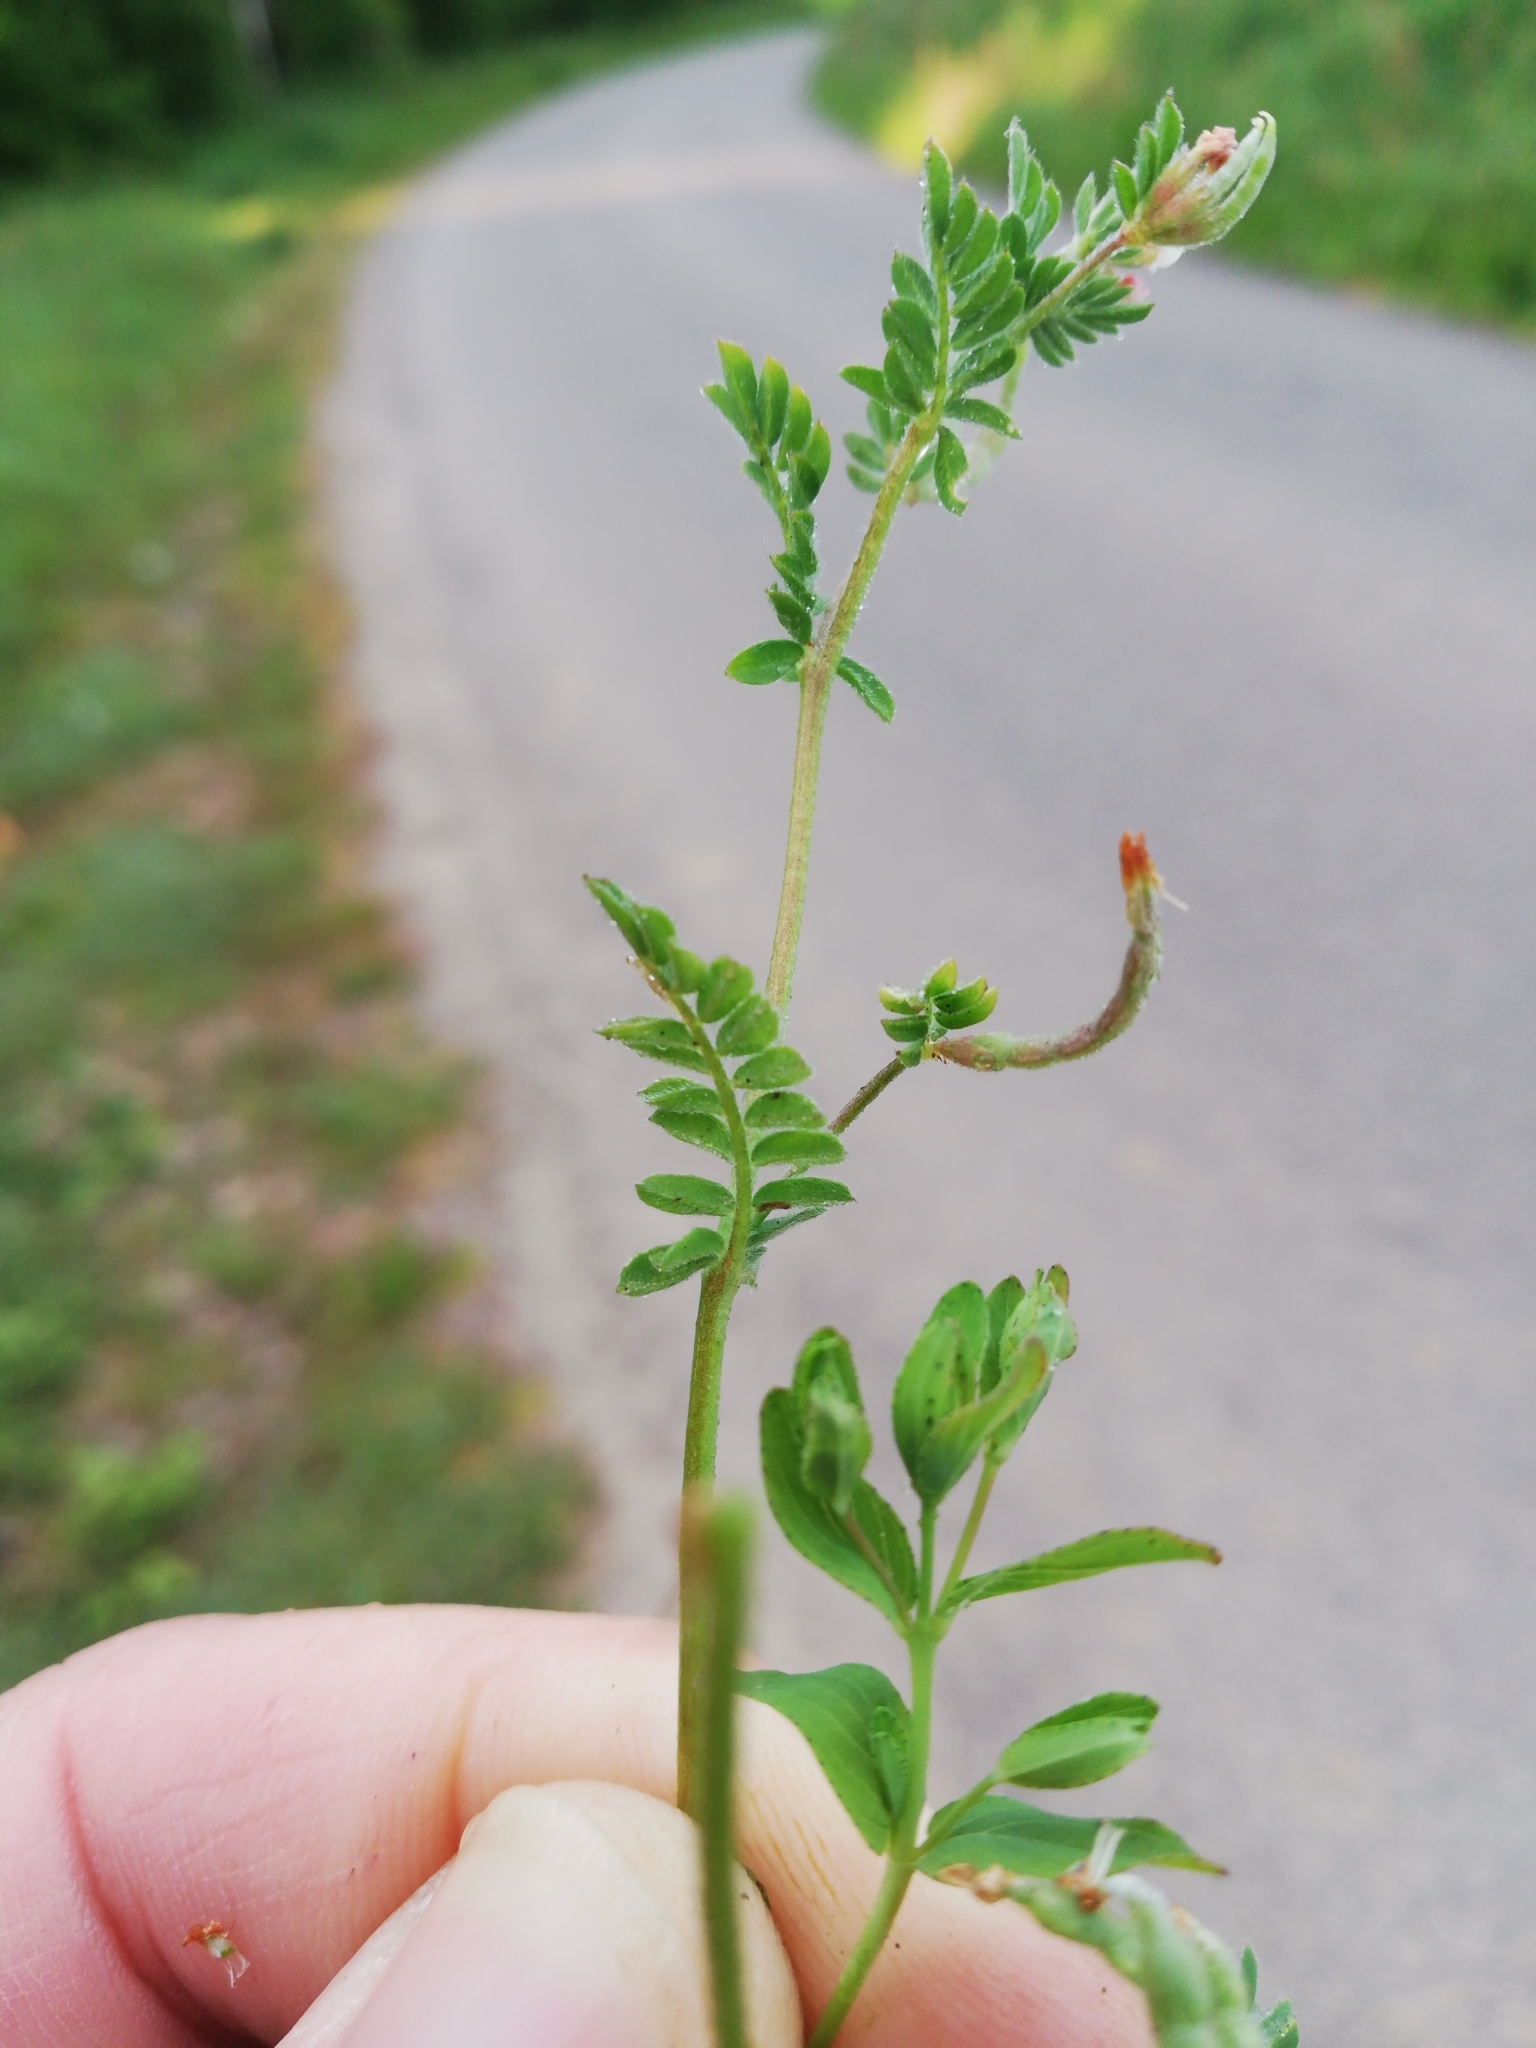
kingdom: Plantae
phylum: Tracheophyta
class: Magnoliopsida
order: Fabales
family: Fabaceae
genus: Ornithopus
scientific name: Ornithopus perpusillus
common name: Bird's-foot
